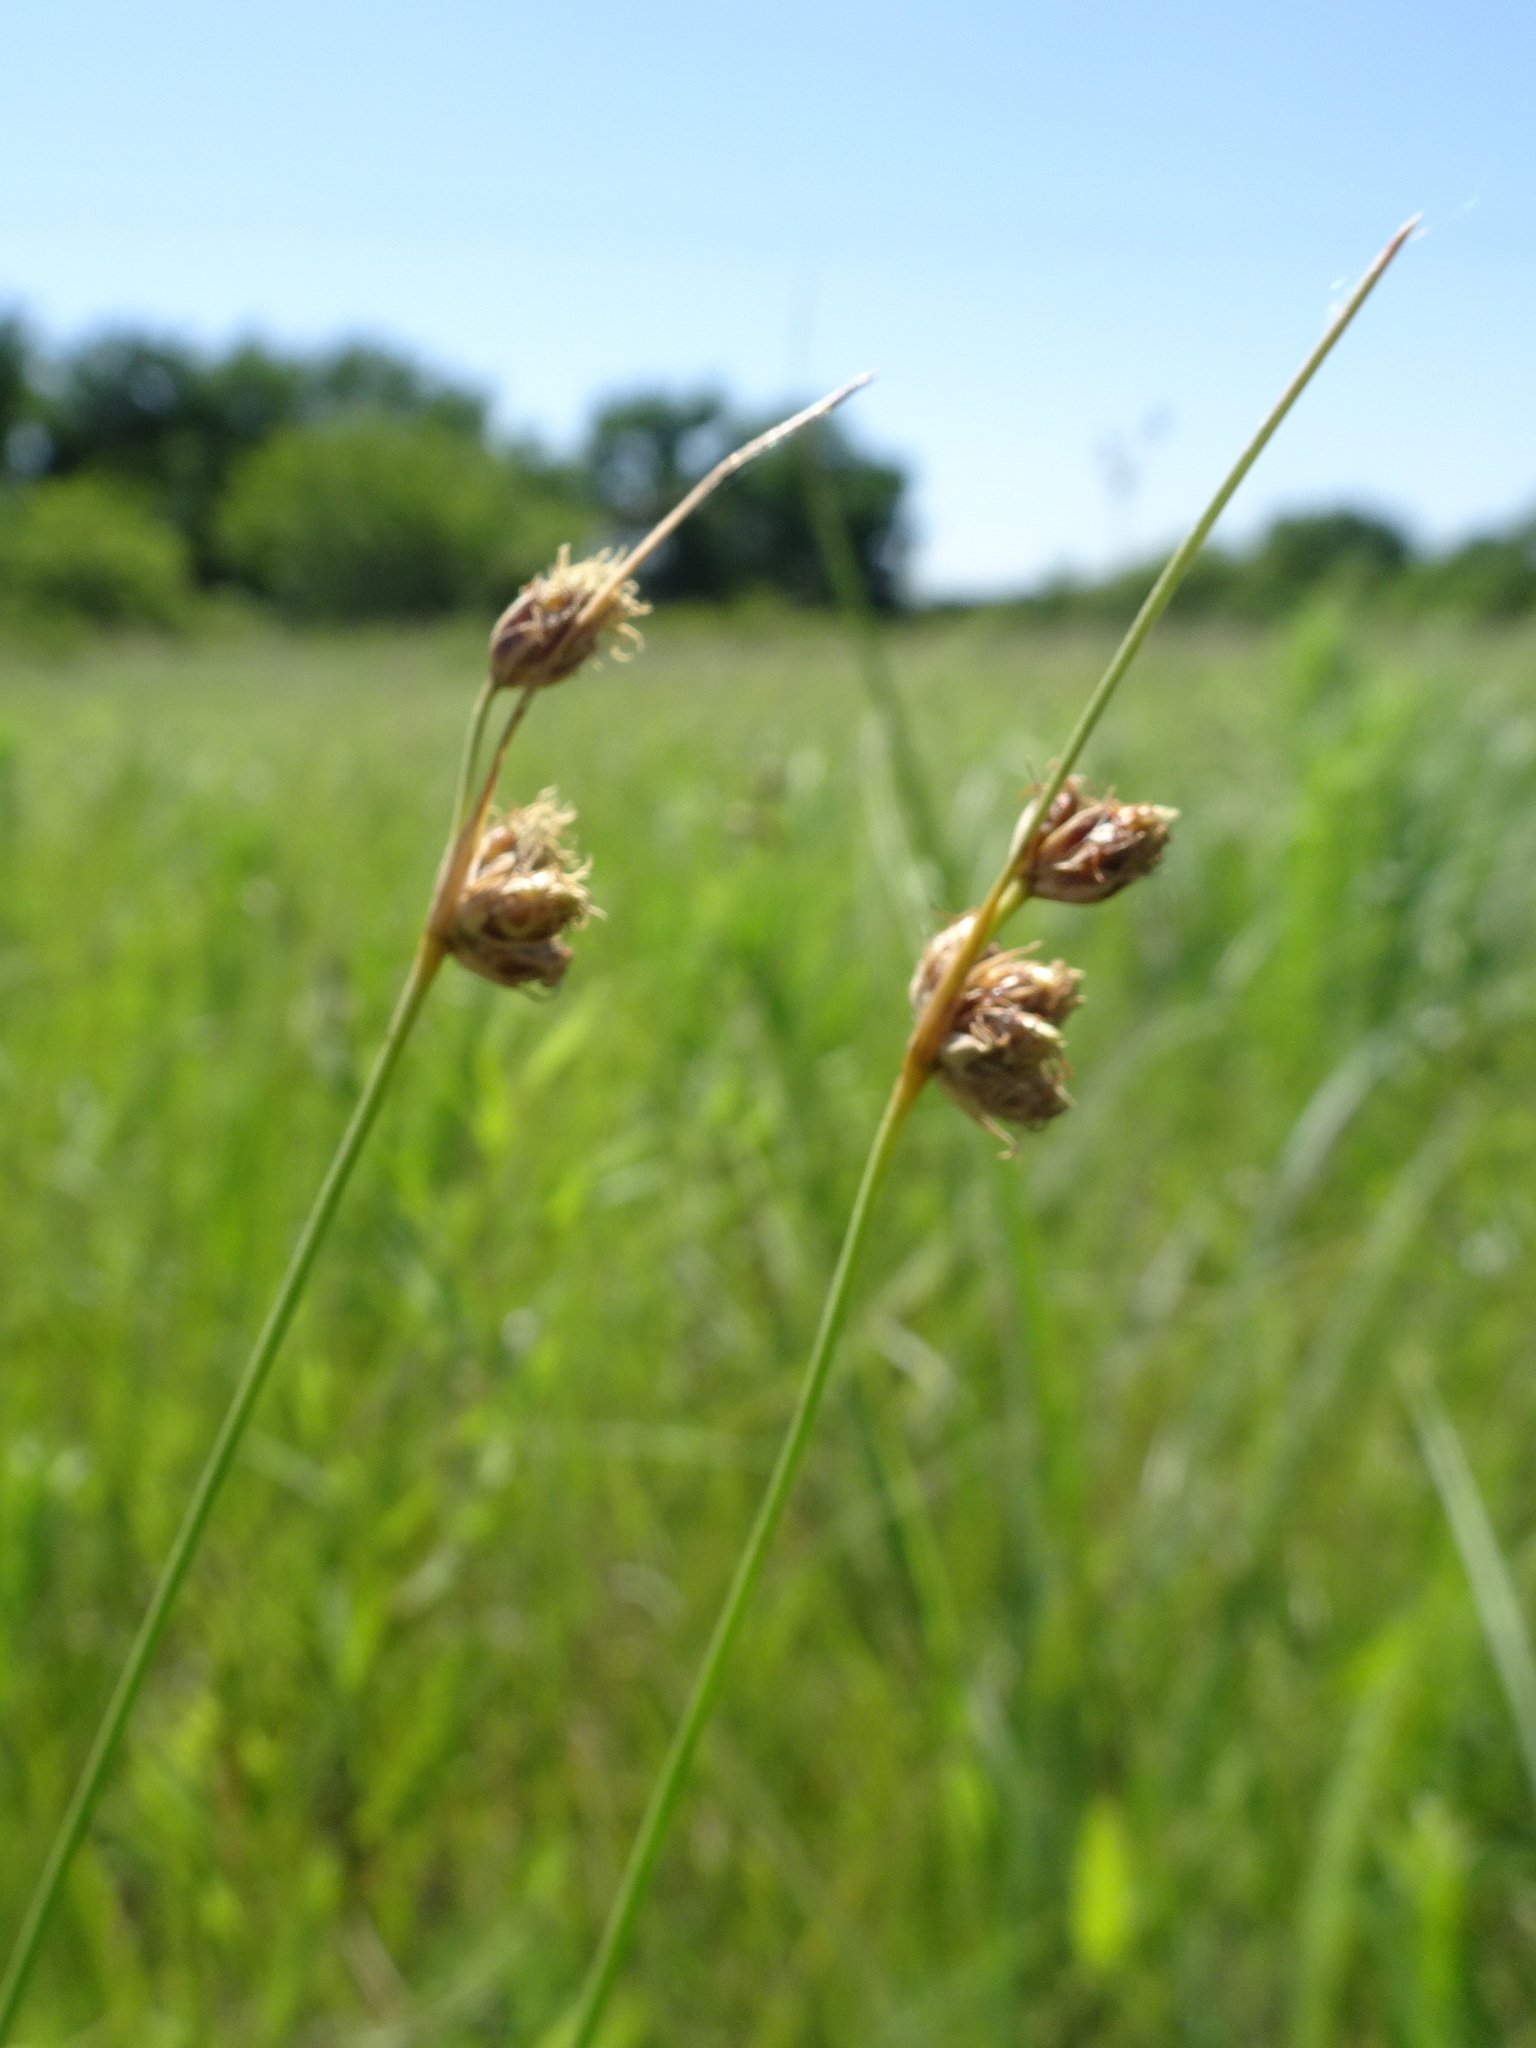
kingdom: Plantae
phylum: Tracheophyta
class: Liliopsida
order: Poales
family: Cyperaceae
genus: Fimbristylis
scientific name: Fimbristylis puberula
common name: Hairy fimbristylis
